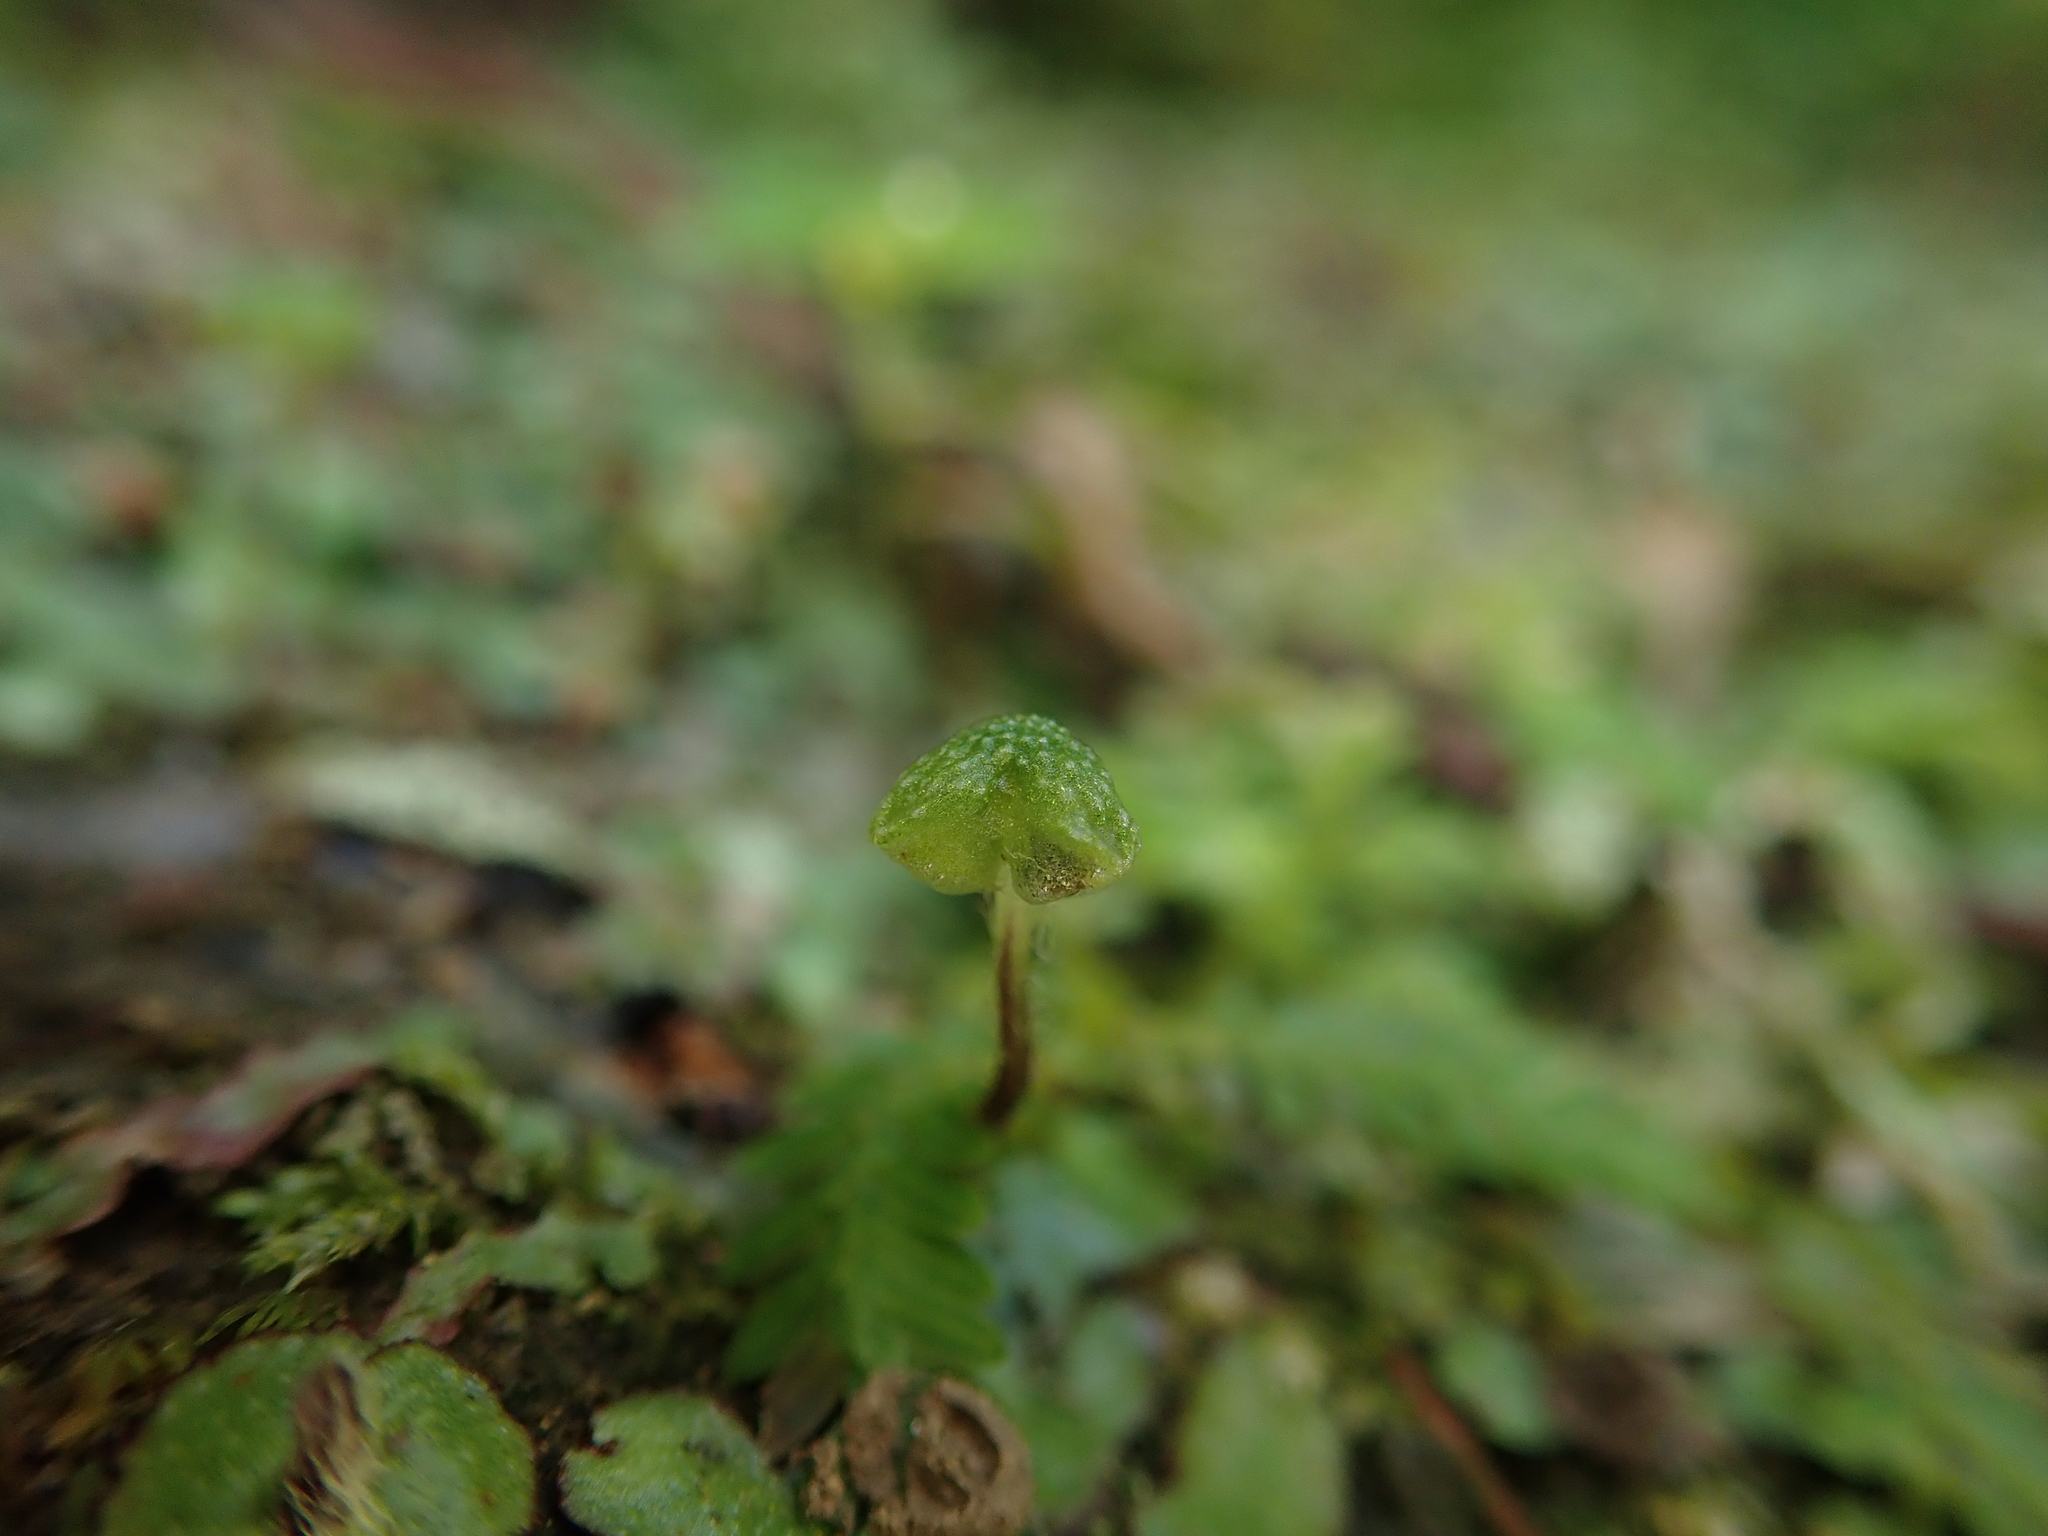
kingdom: Plantae
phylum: Marchantiophyta
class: Marchantiopsida
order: Marchantiales
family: Aytoniaceae
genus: Reboulia
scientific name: Reboulia hemisphaerica
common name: Purple-margined liverwort
